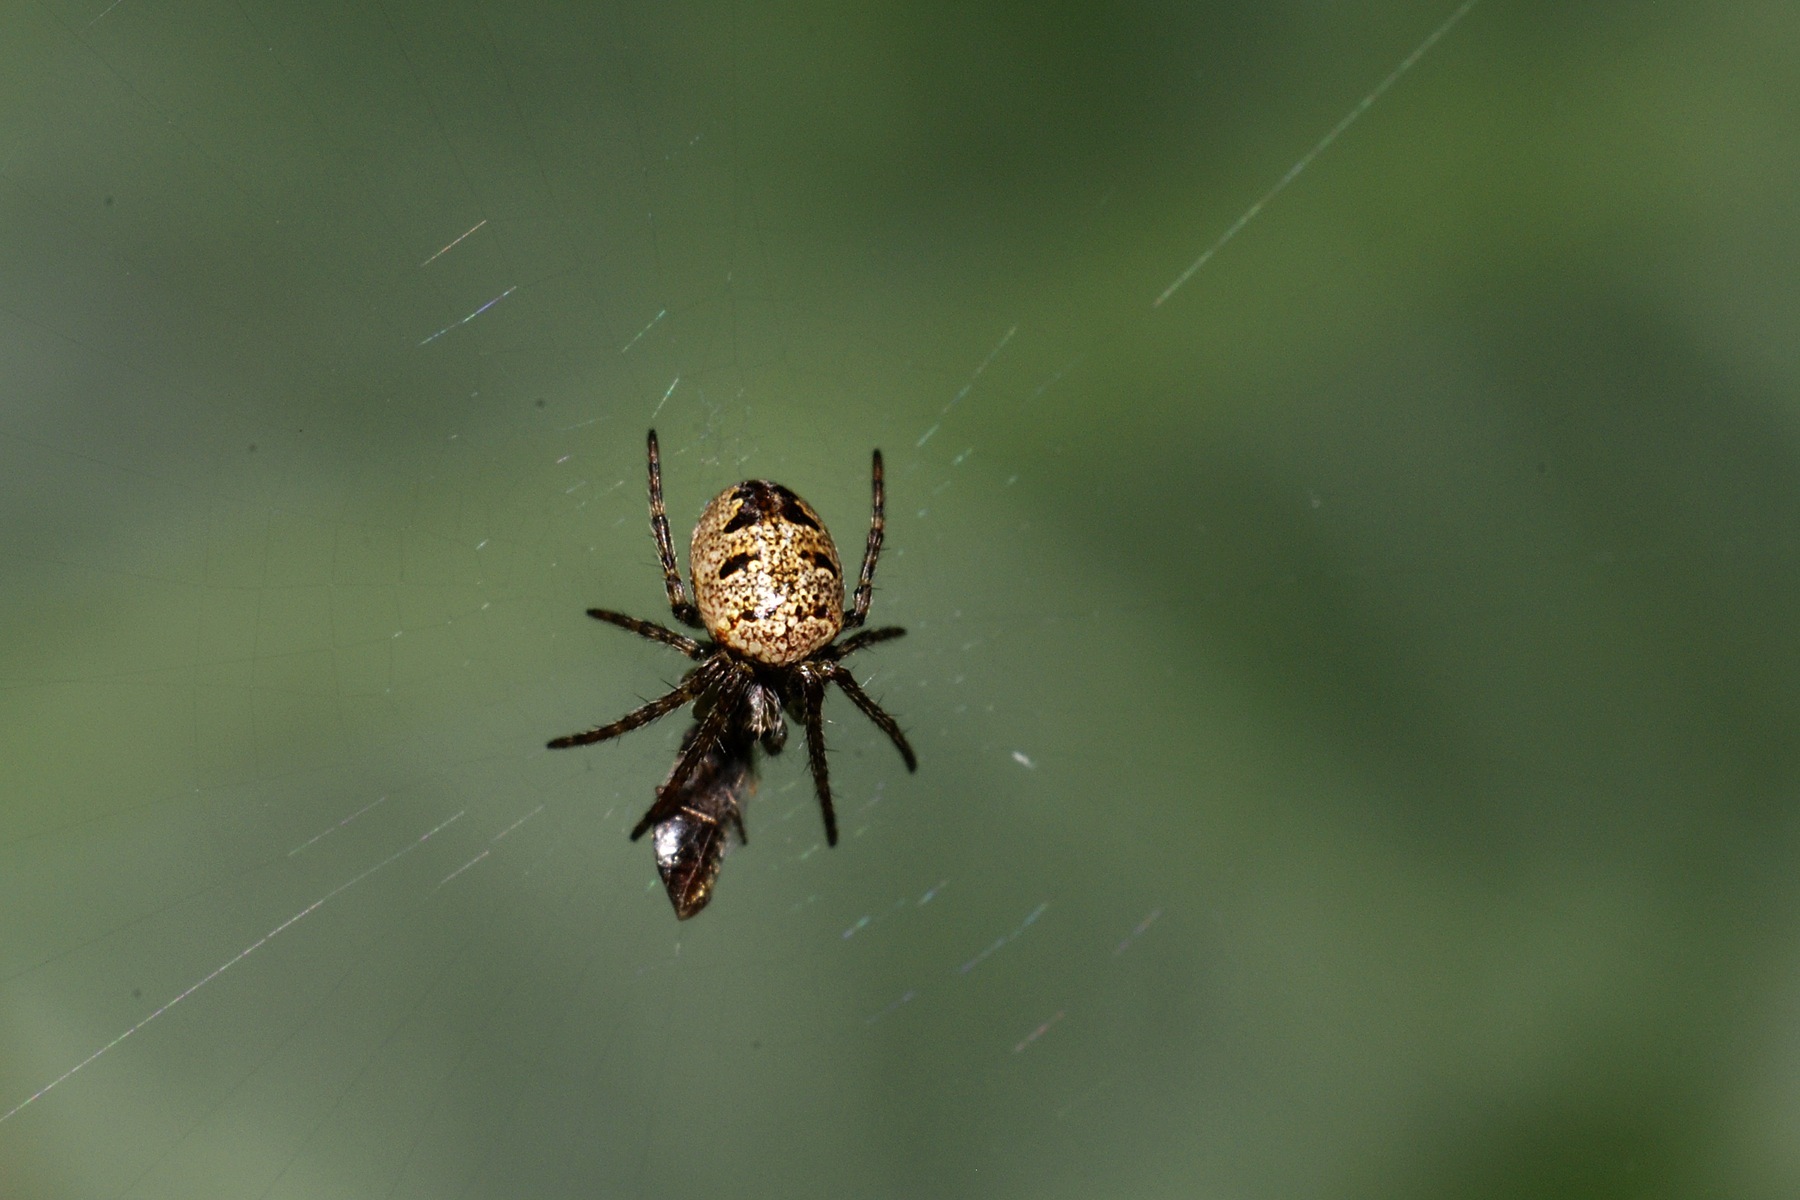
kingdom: Animalia
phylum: Arthropoda
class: Arachnida
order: Araneae
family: Araneidae
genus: Zilla
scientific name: Zilla diodia
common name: Zilla diodia
